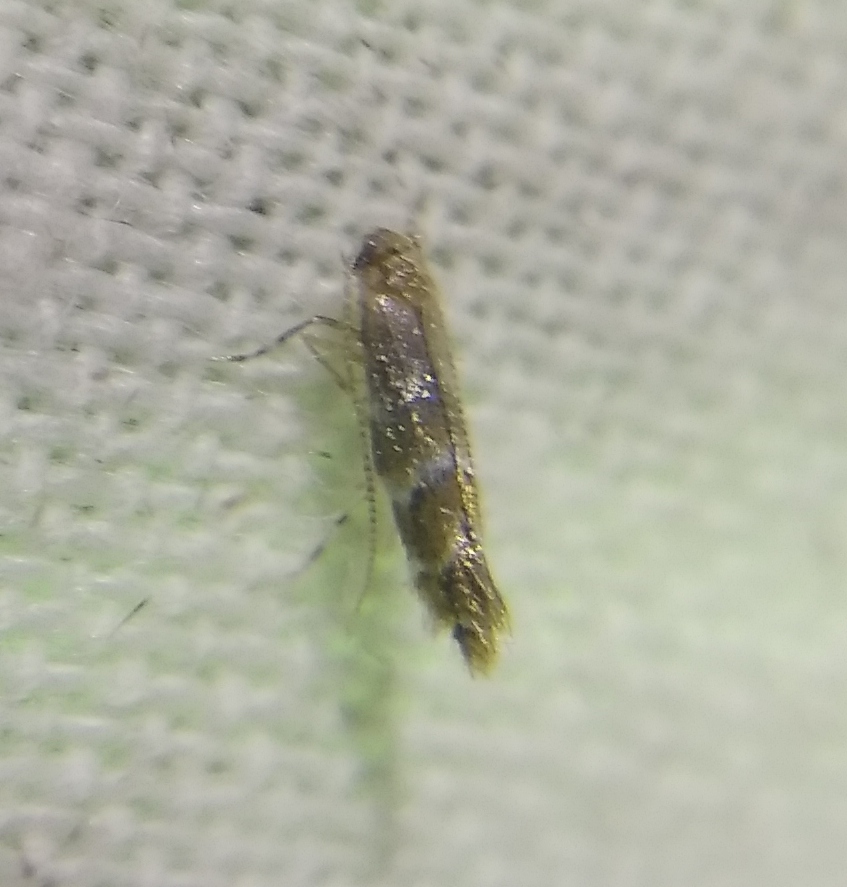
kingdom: Animalia
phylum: Arthropoda
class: Insecta
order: Lepidoptera
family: Gracillariidae
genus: Cameraria
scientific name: Cameraria ohridella
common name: Horse-chestnut leaf-miner
